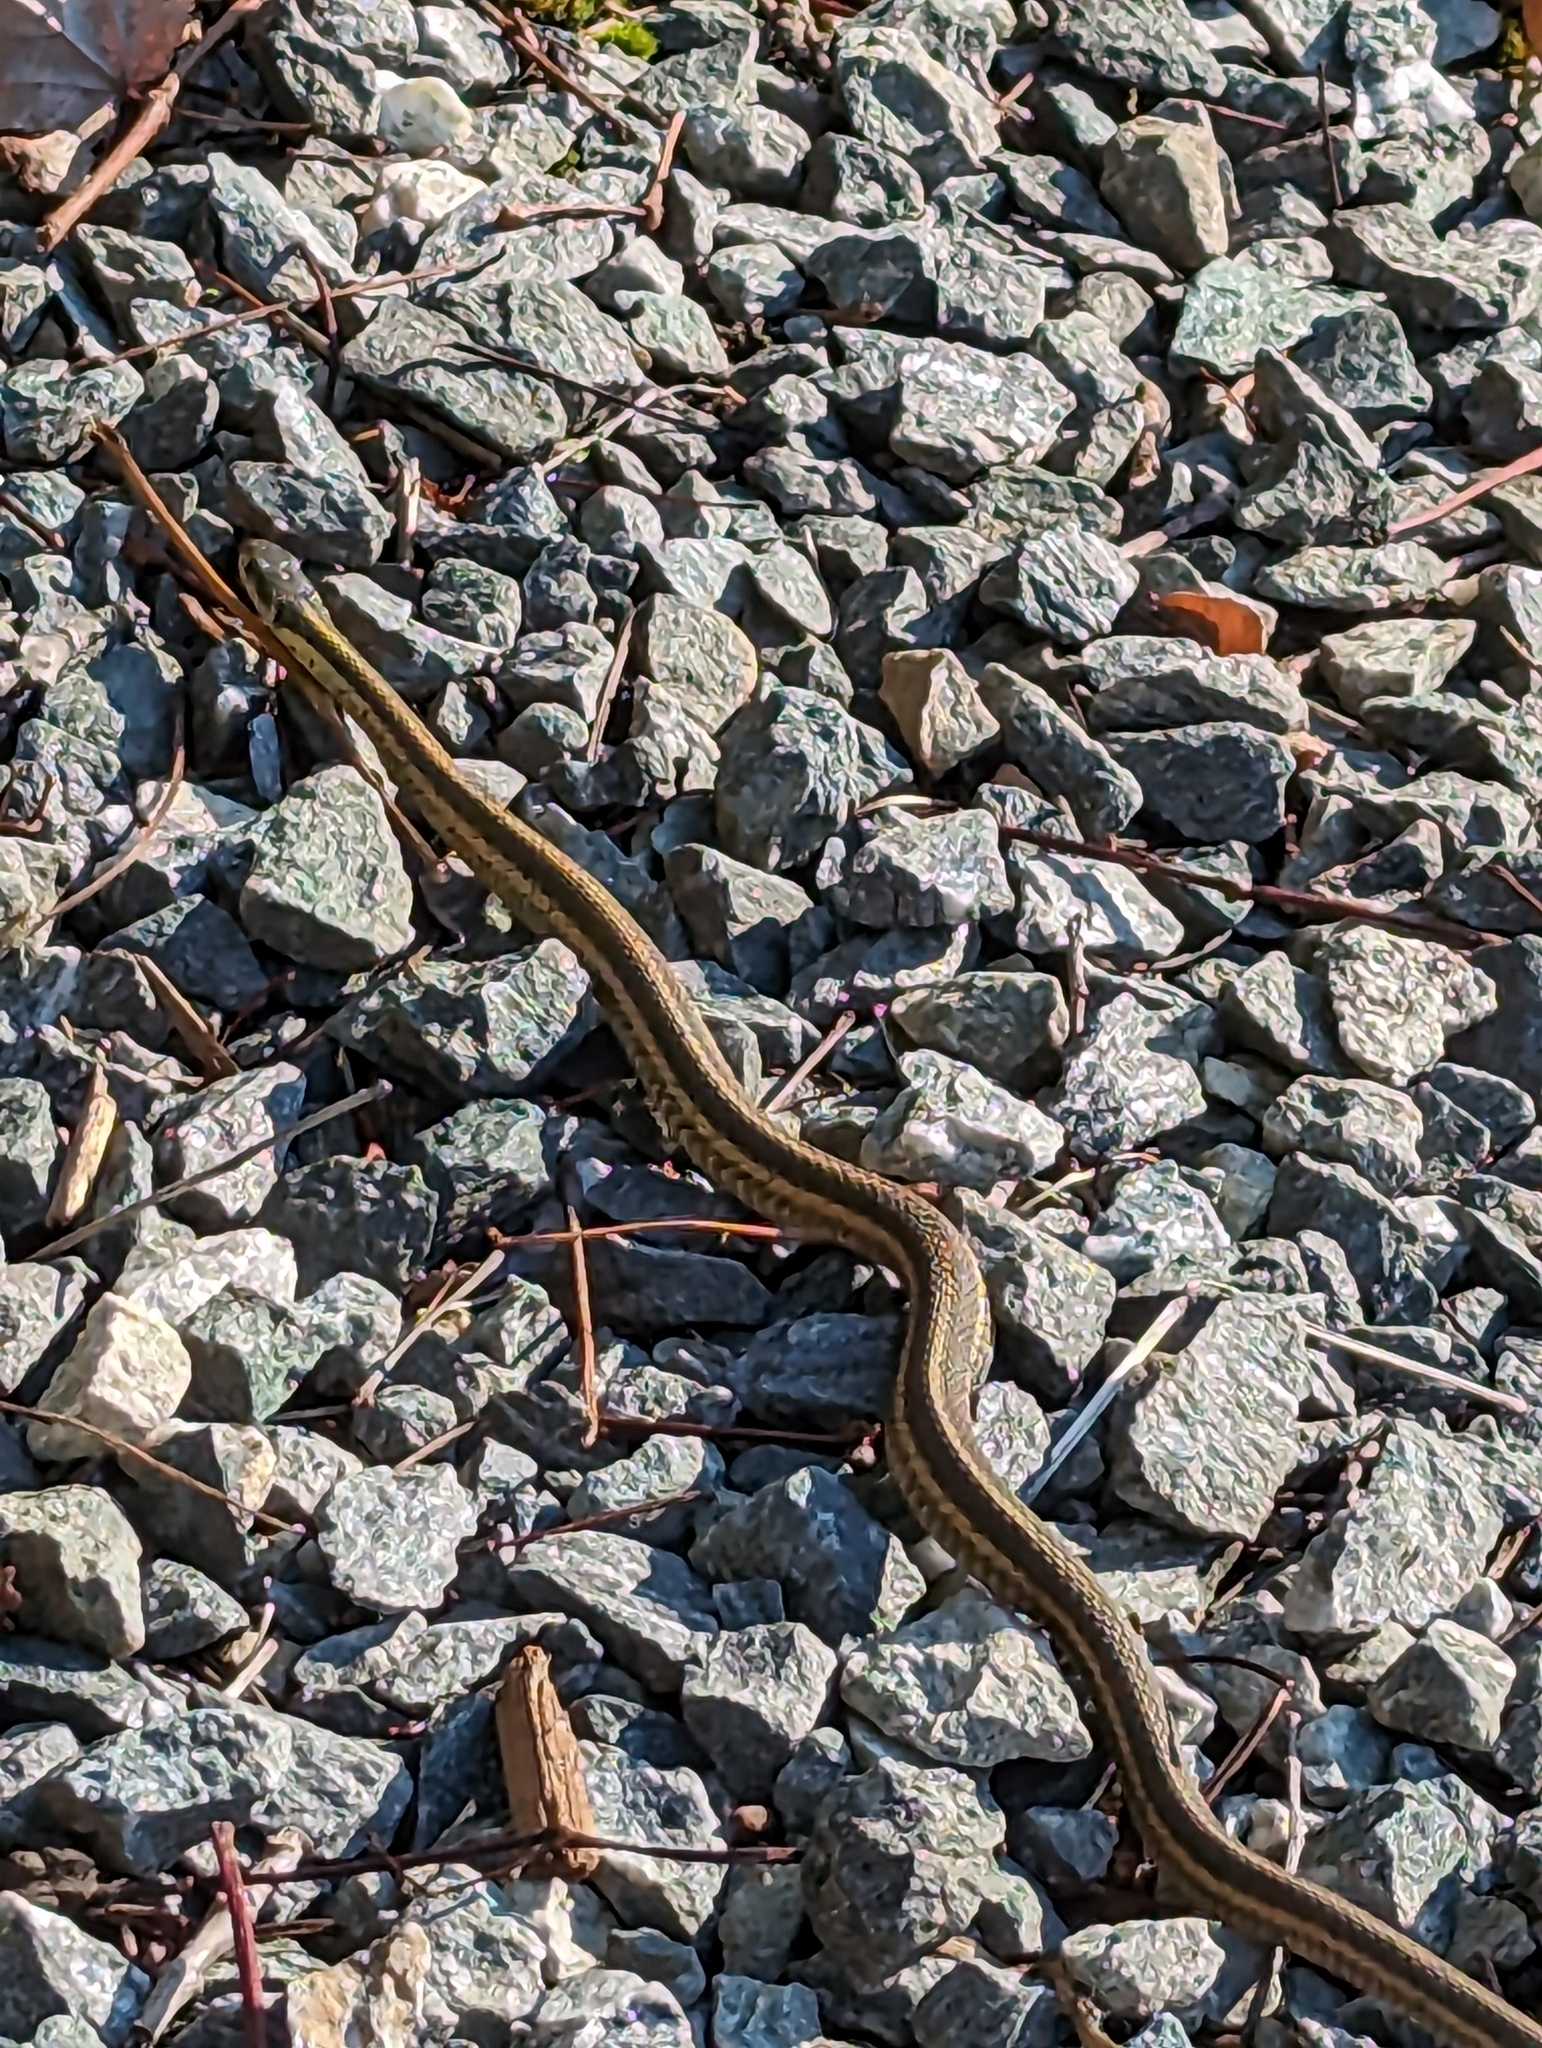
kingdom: Animalia
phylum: Chordata
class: Squamata
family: Colubridae
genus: Thamnophis
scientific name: Thamnophis sirtalis
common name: Common garter snake
